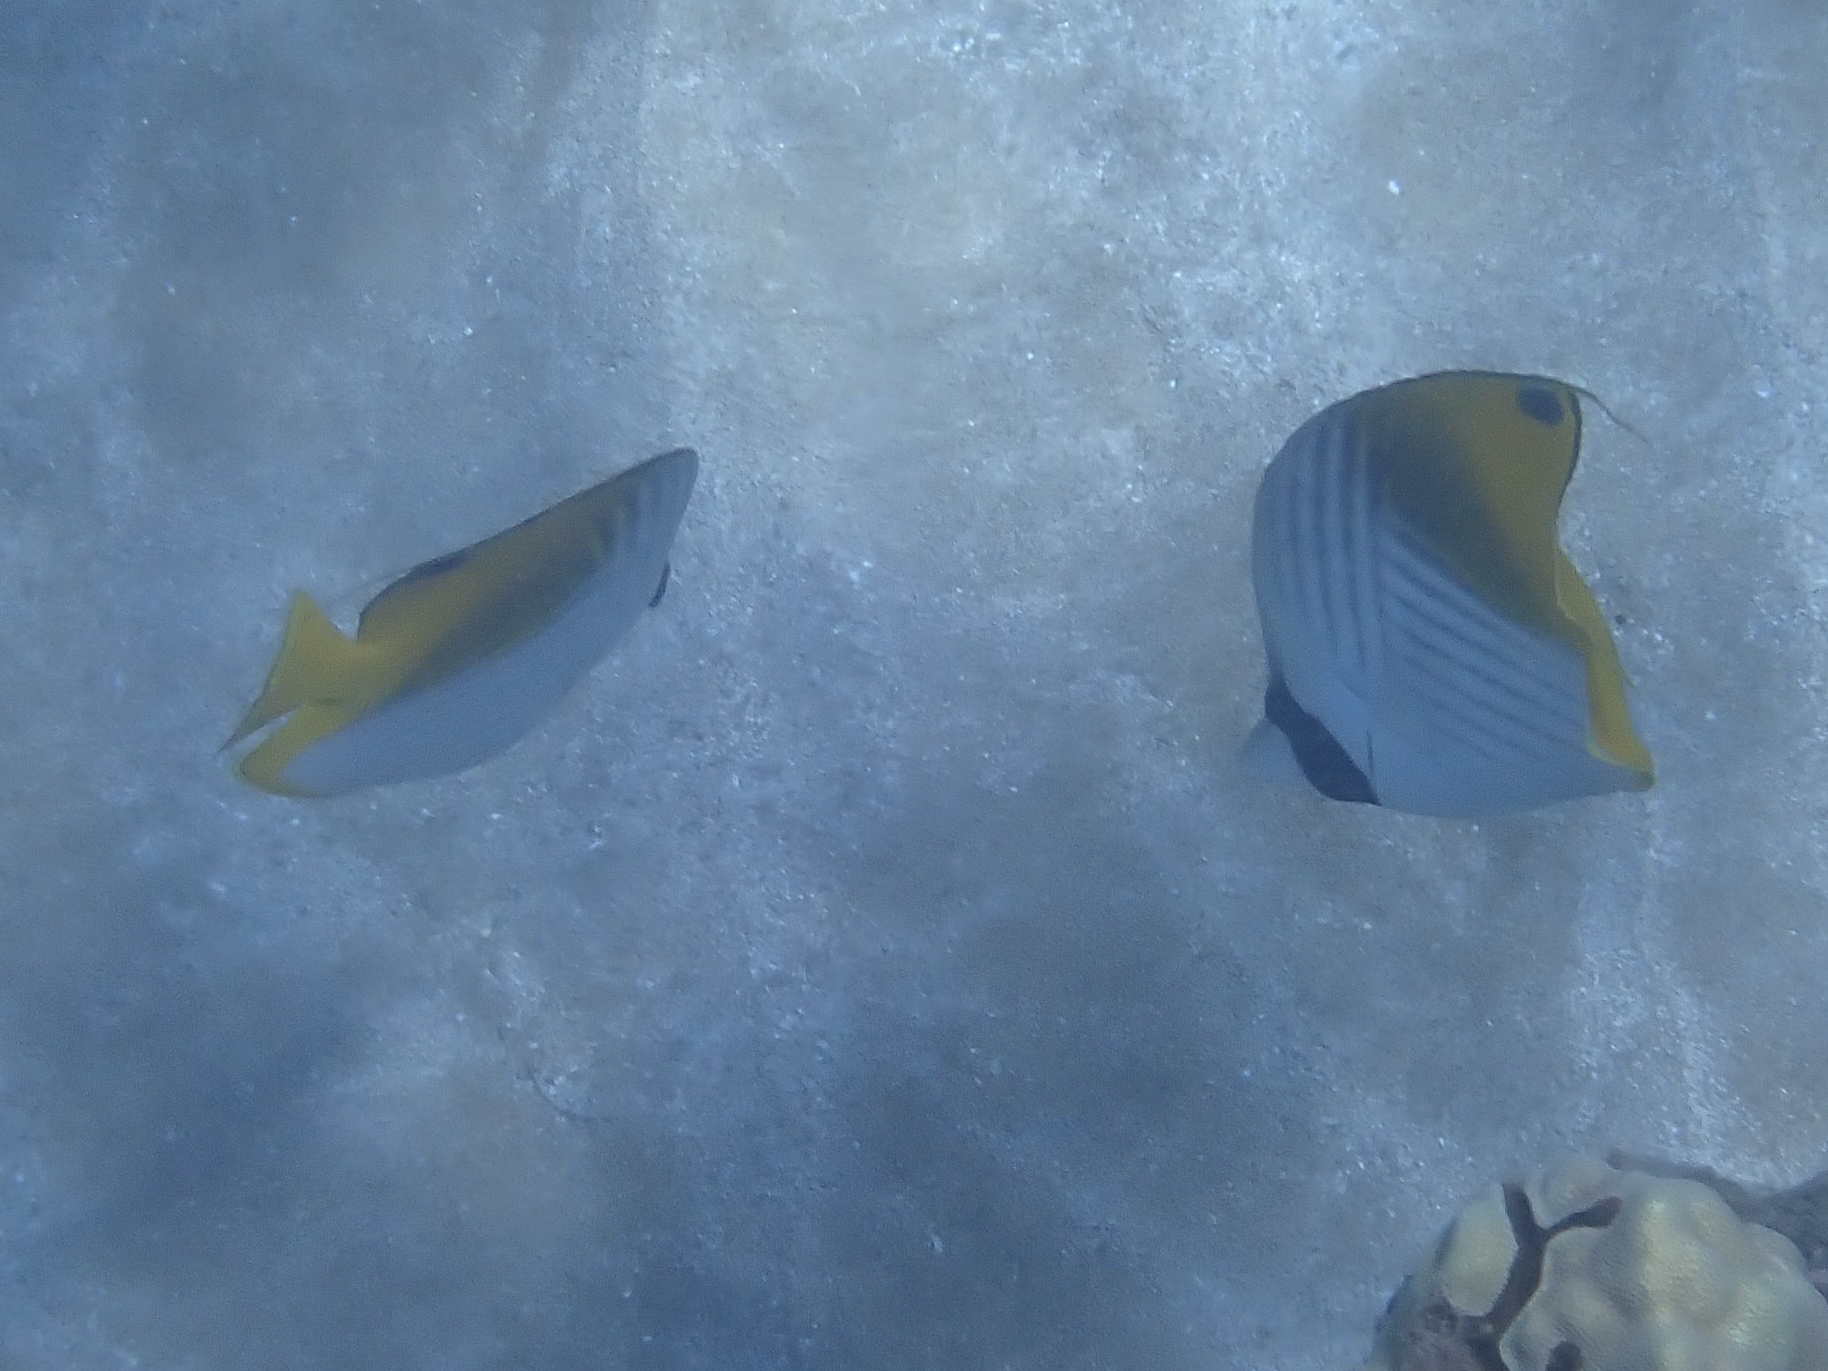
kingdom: Animalia
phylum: Chordata
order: Perciformes
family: Chaetodontidae
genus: Chaetodon
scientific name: Chaetodon auriga
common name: Threadfin butterflyfish
